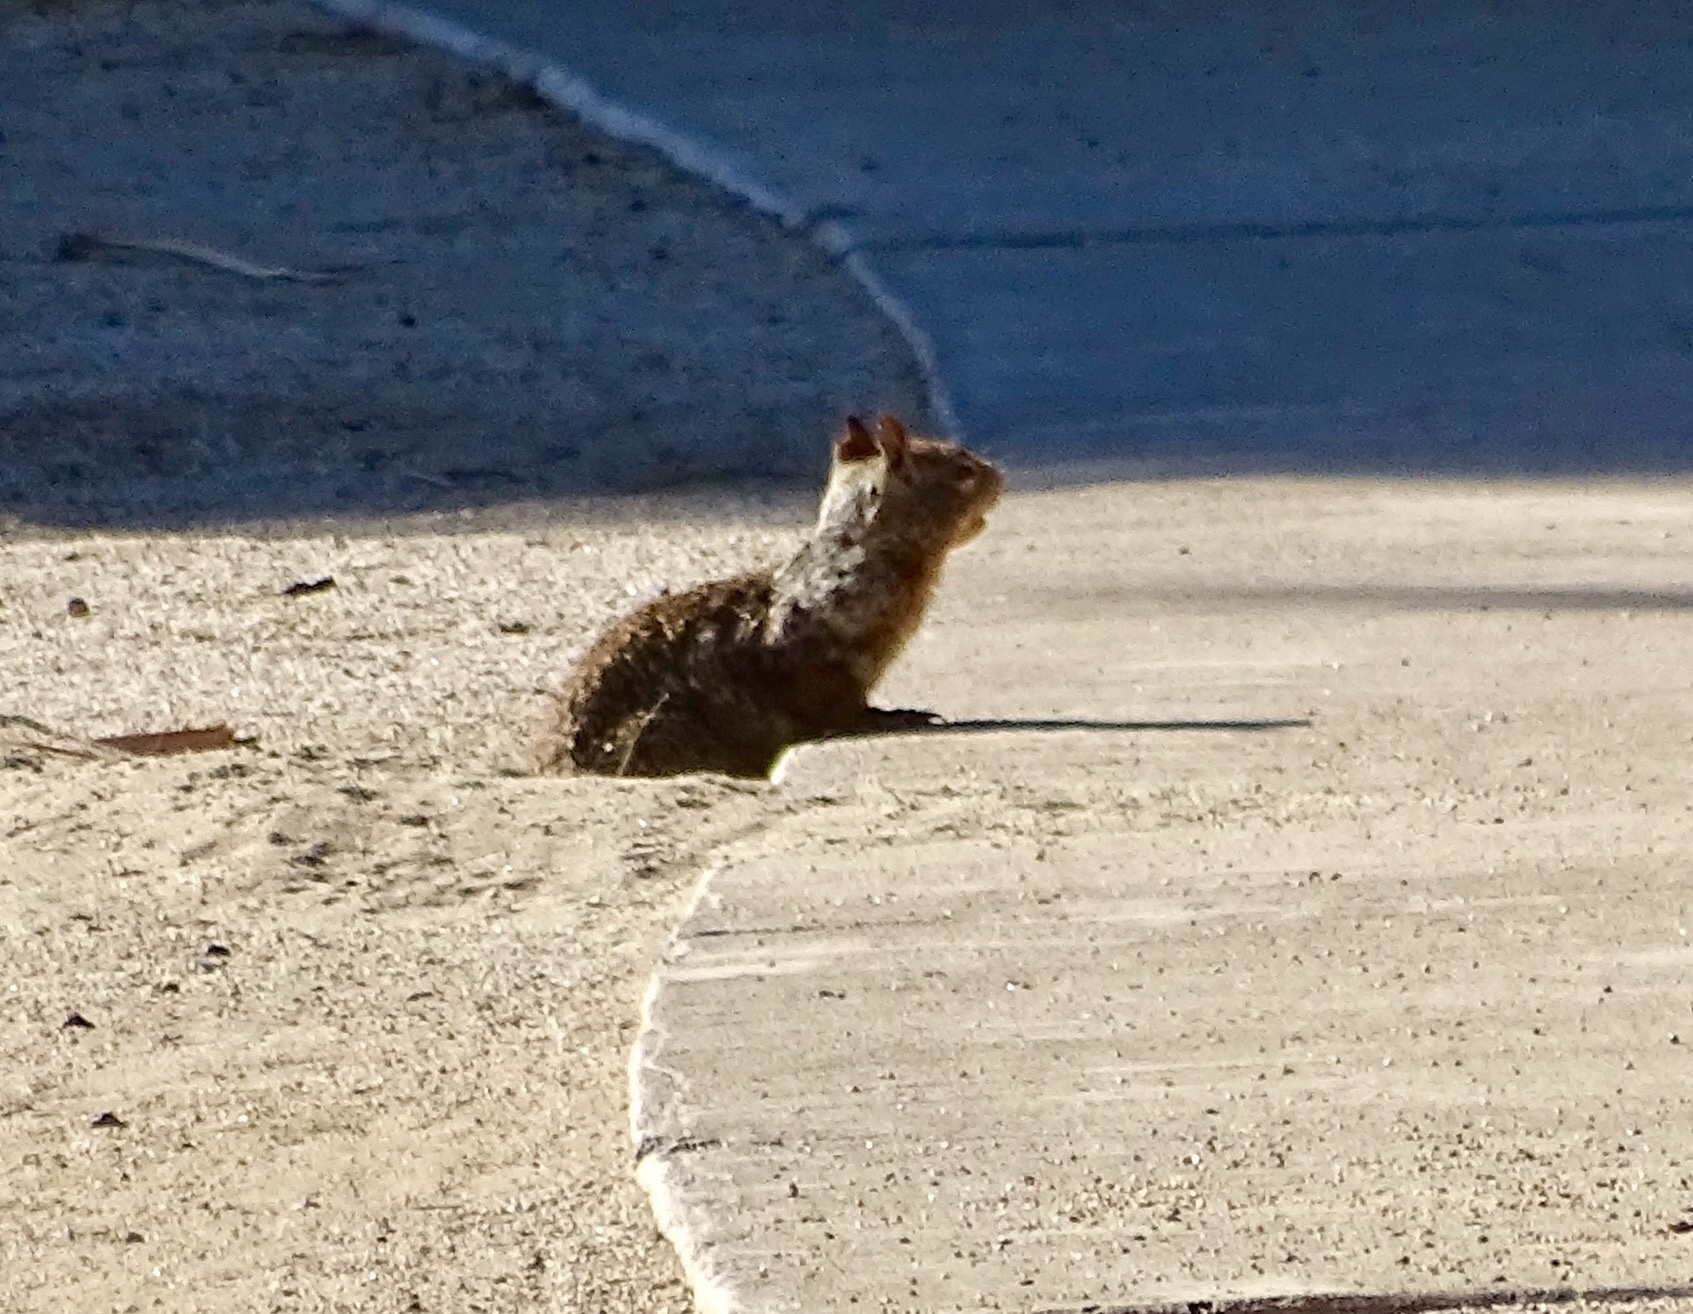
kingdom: Animalia
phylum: Chordata
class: Mammalia
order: Rodentia
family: Sciuridae
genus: Otospermophilus
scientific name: Otospermophilus beecheyi
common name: California ground squirrel
